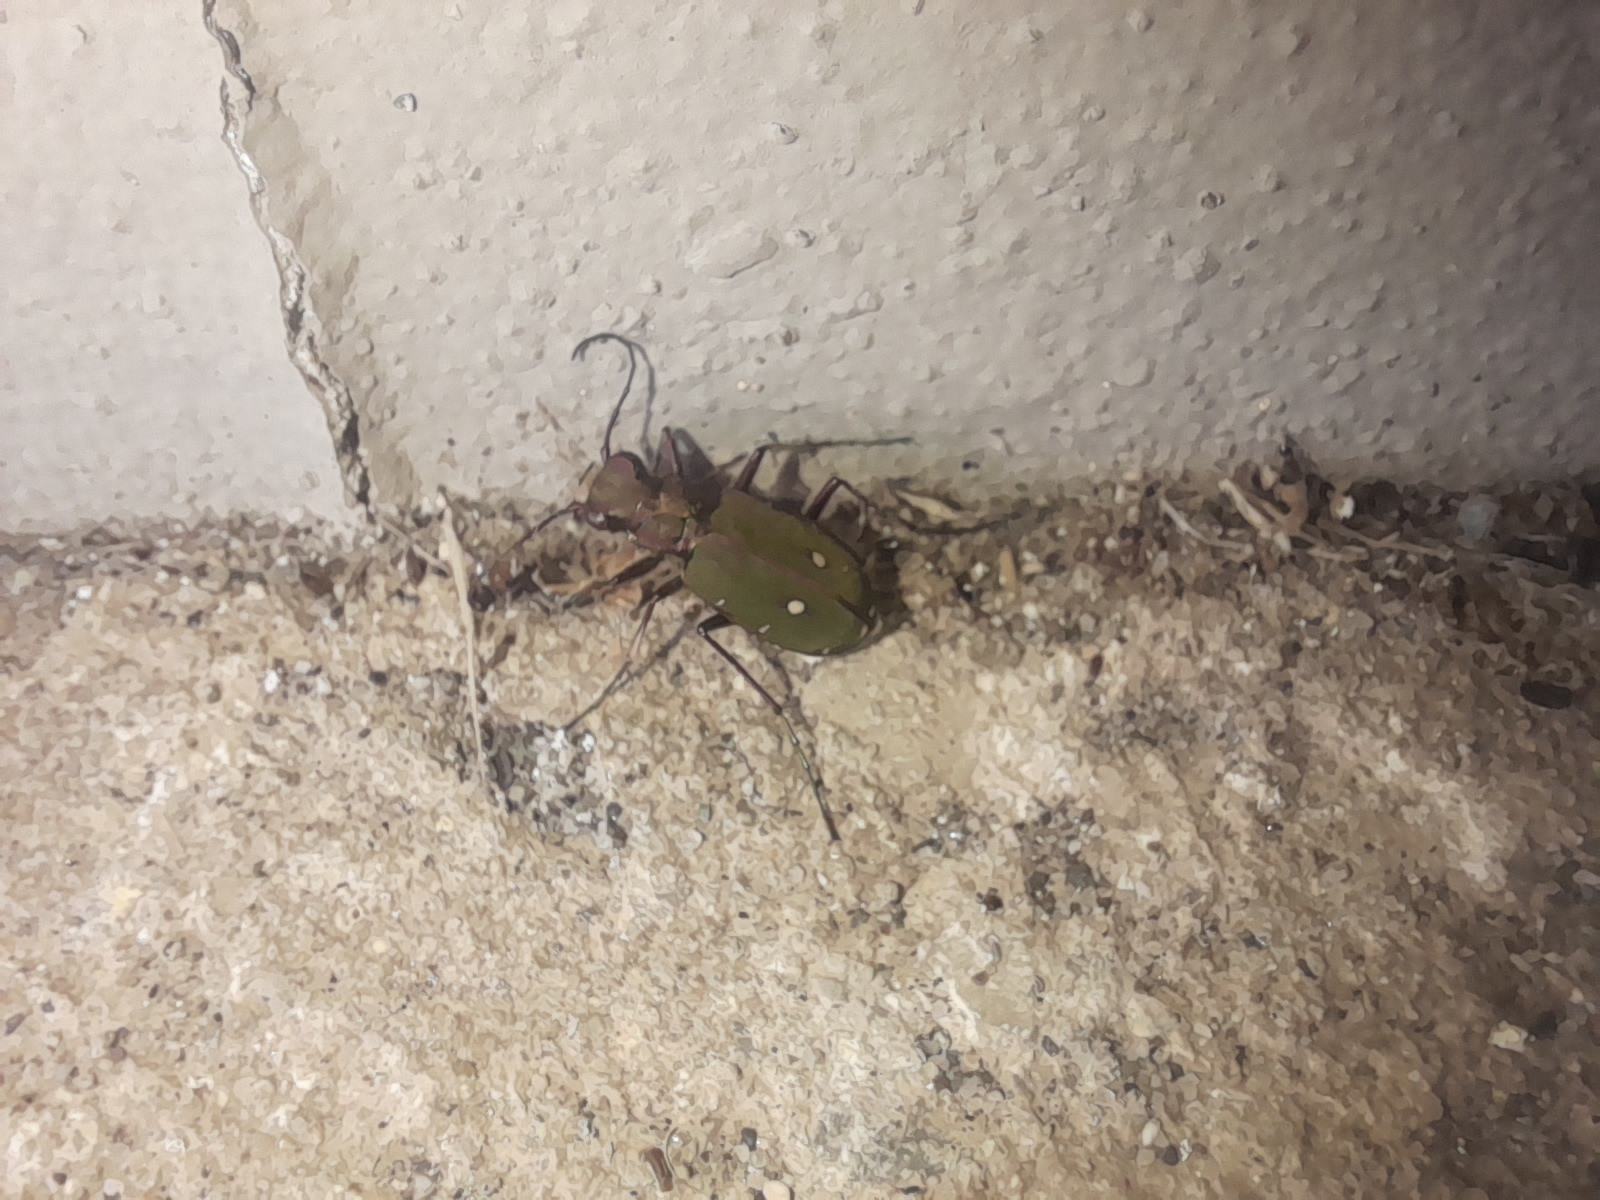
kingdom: Animalia
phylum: Arthropoda
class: Insecta
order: Coleoptera
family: Carabidae
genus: Cicindela
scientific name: Cicindela campestris
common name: Common tiger beetle
